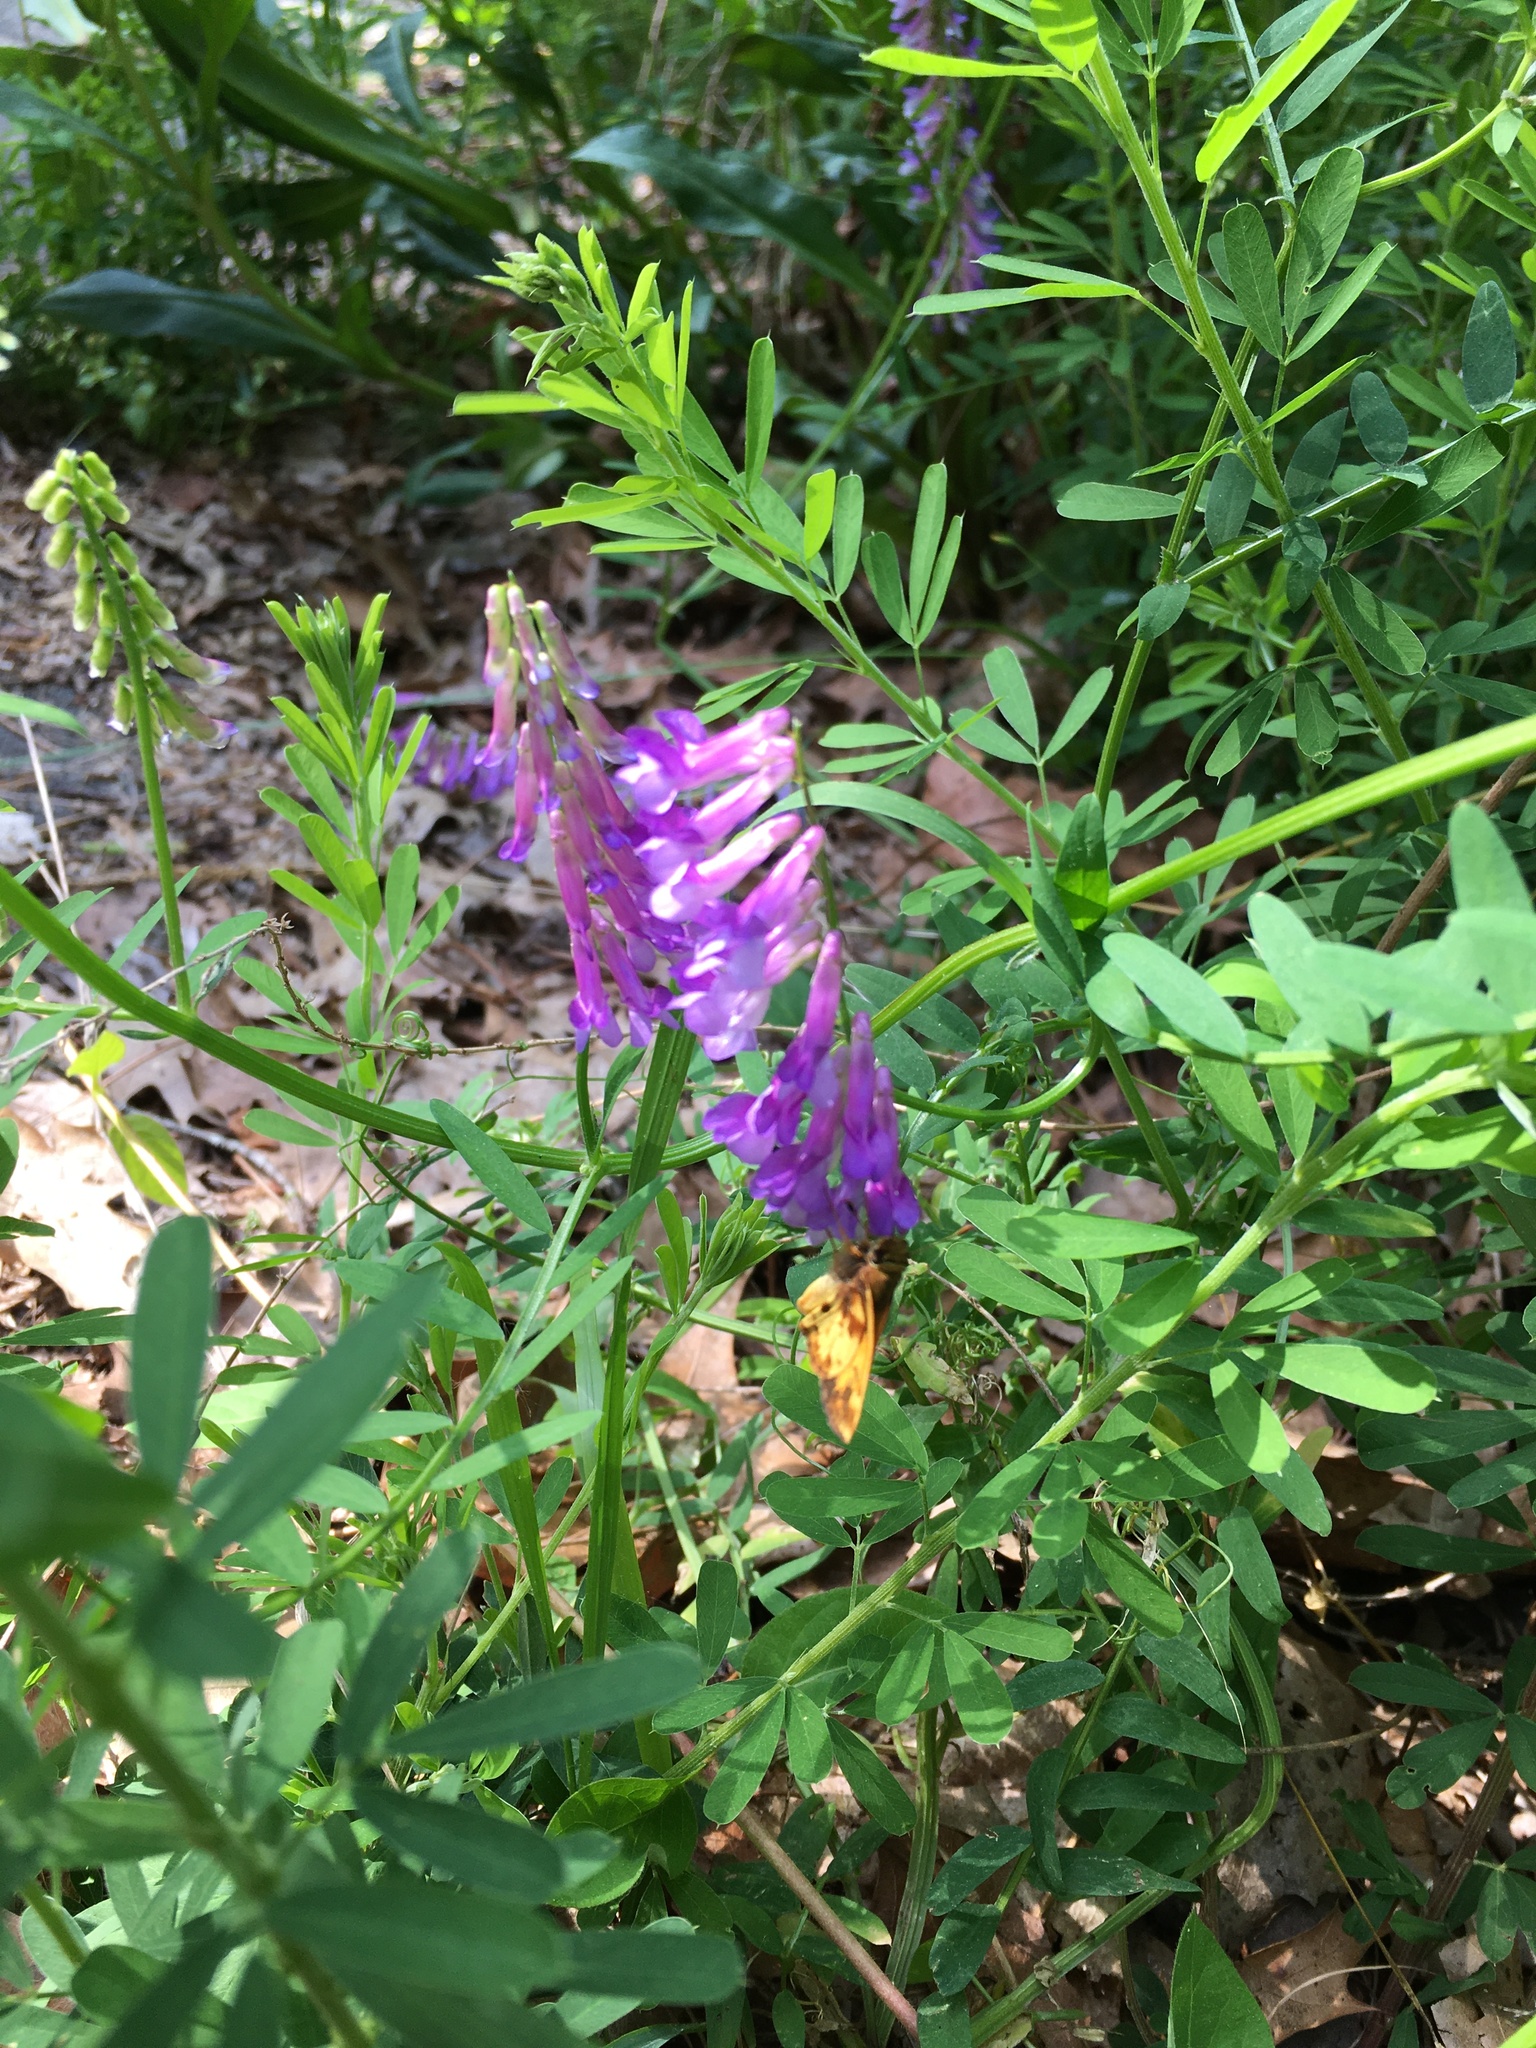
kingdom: Plantae
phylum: Tracheophyta
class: Magnoliopsida
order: Fabales
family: Fabaceae
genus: Vicia
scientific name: Vicia villosa
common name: Fodder vetch
